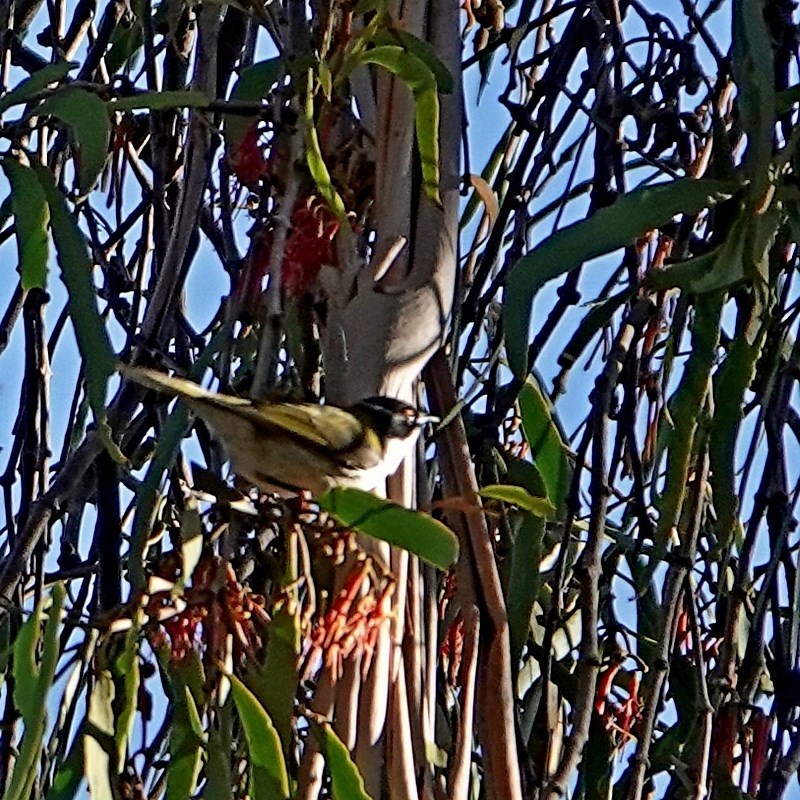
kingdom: Animalia
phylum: Chordata
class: Aves
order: Passeriformes
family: Meliphagidae
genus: Melithreptus
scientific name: Melithreptus lunatus
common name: White-naped honeyeater
